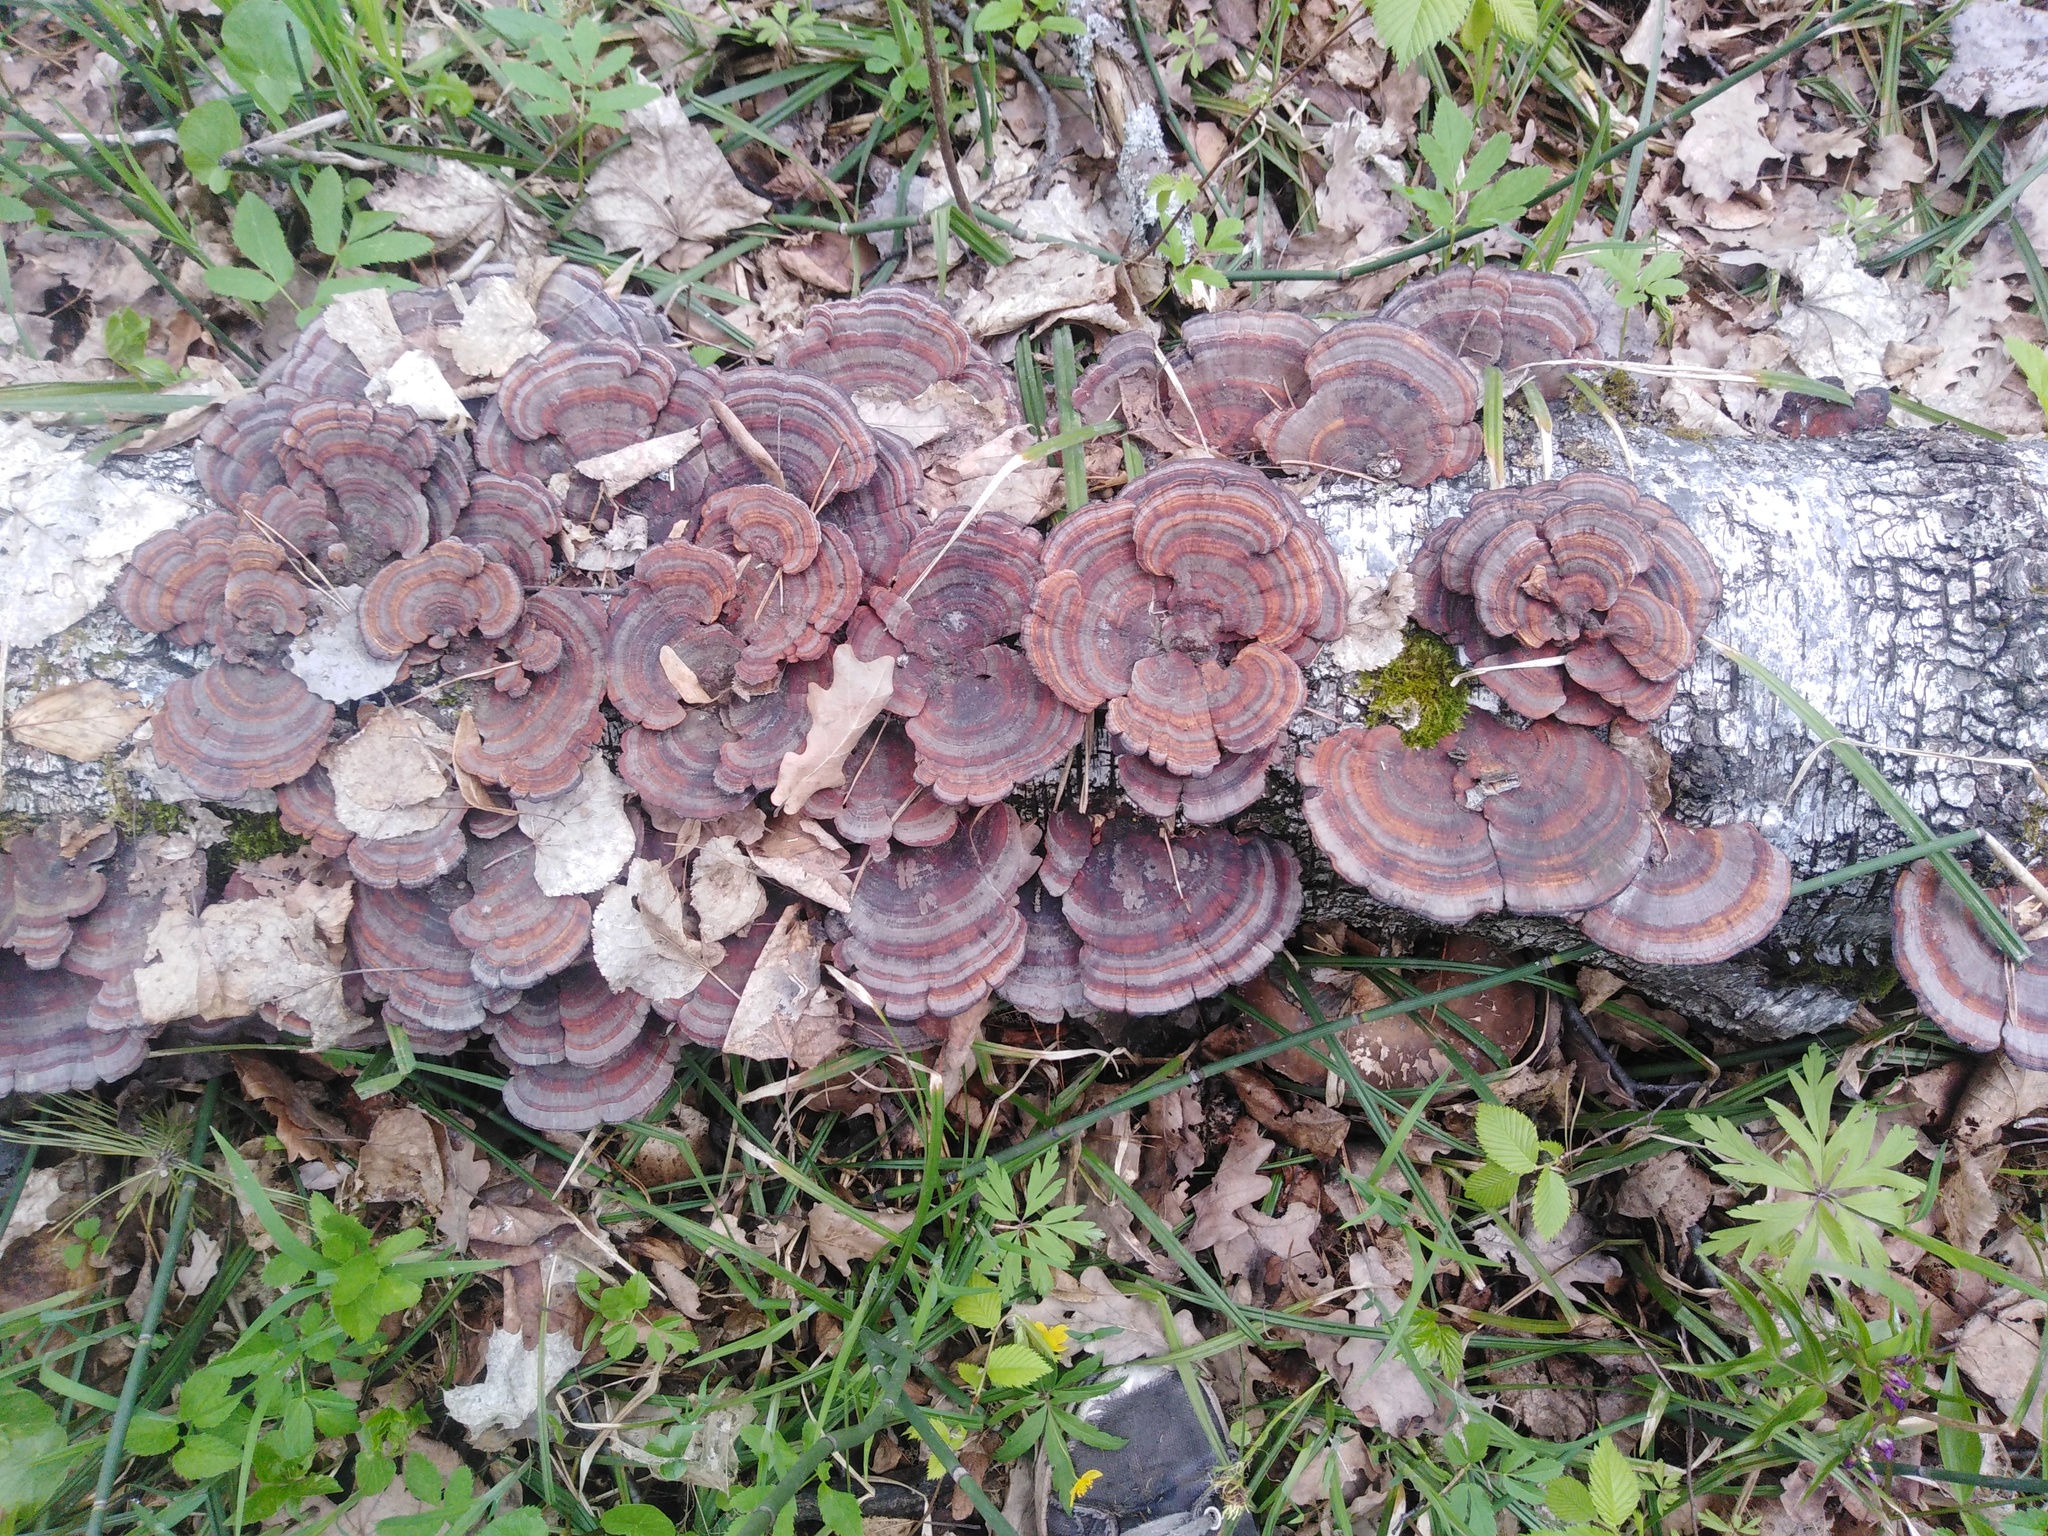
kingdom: Fungi
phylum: Basidiomycota
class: Agaricomycetes
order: Polyporales
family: Polyporaceae
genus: Daedaleopsis
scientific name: Daedaleopsis tricolor
